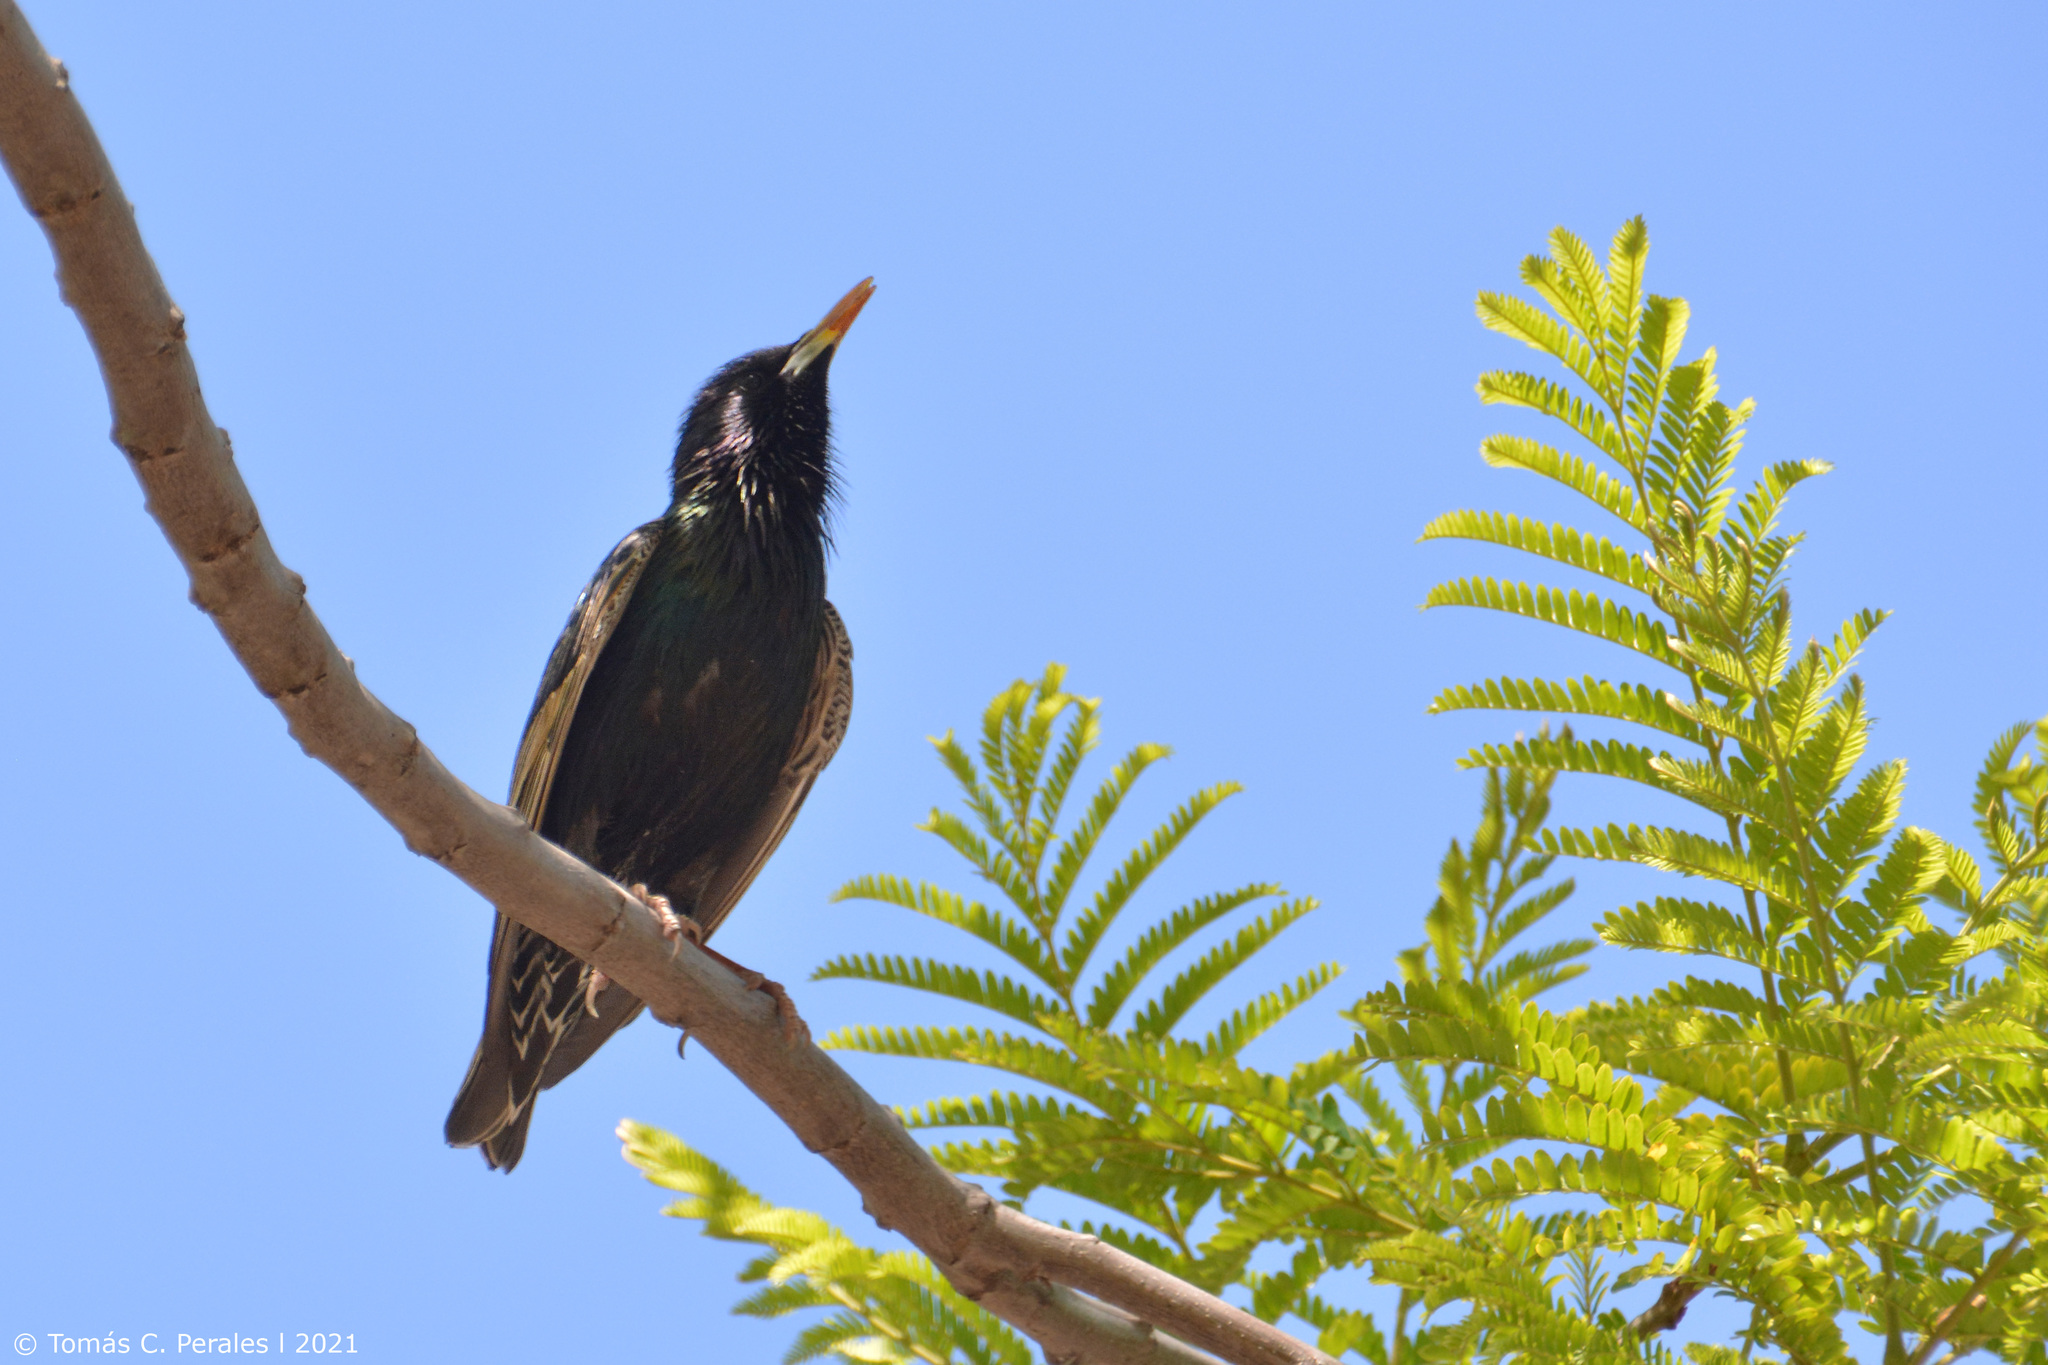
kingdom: Animalia
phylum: Chordata
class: Aves
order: Passeriformes
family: Sturnidae
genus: Sturnus
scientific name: Sturnus vulgaris
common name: Common starling
